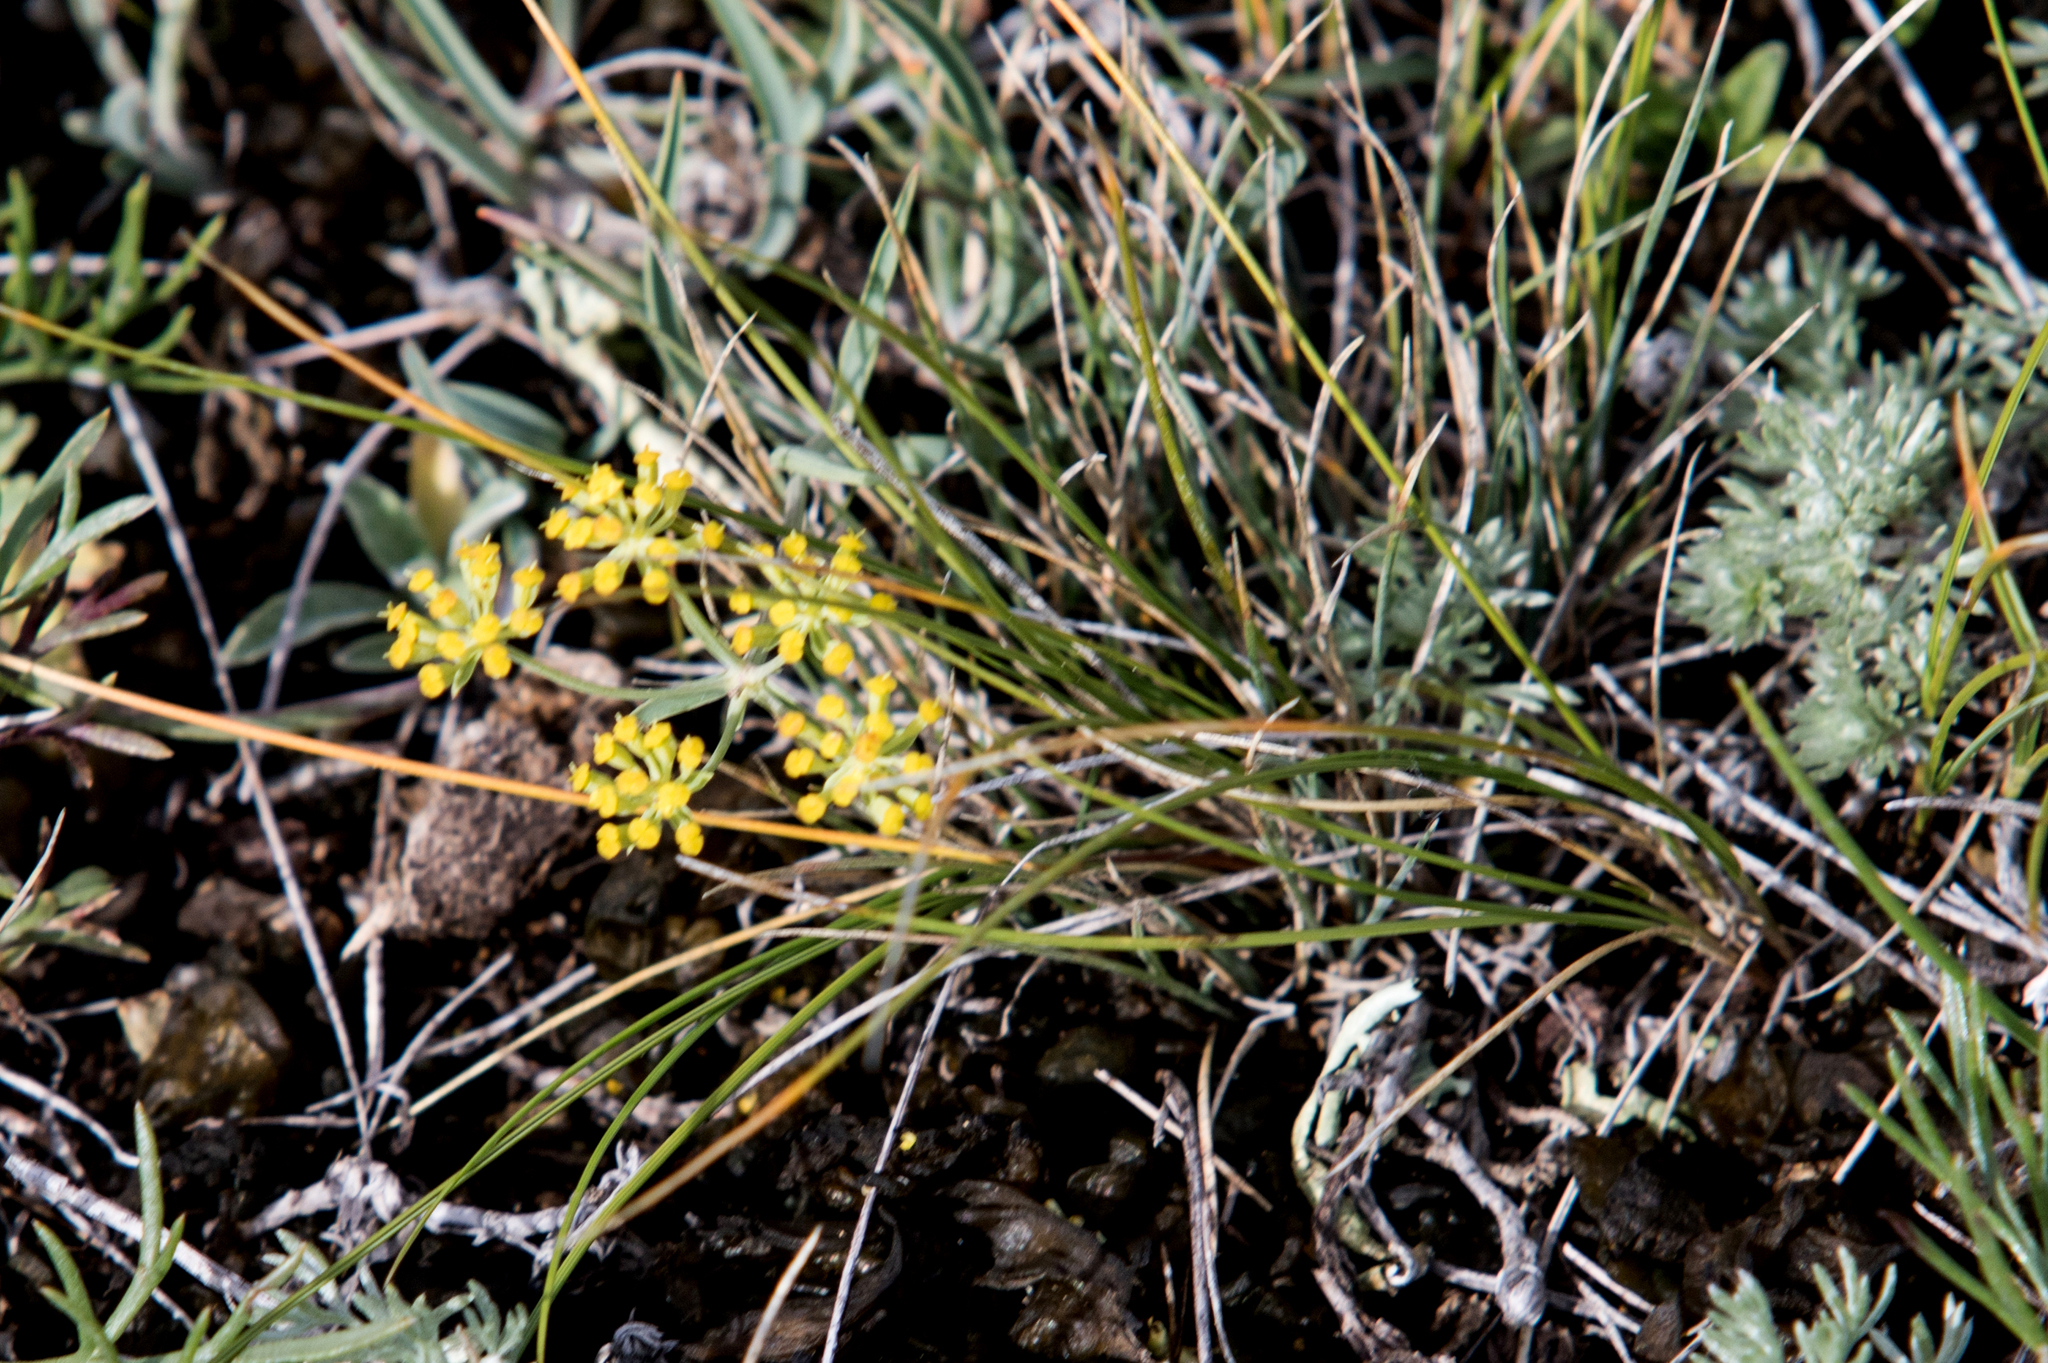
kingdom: Plantae
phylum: Tracheophyta
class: Magnoliopsida
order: Apiales
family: Apiaceae
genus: Bupleurum
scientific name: Bupleurum bicaule
